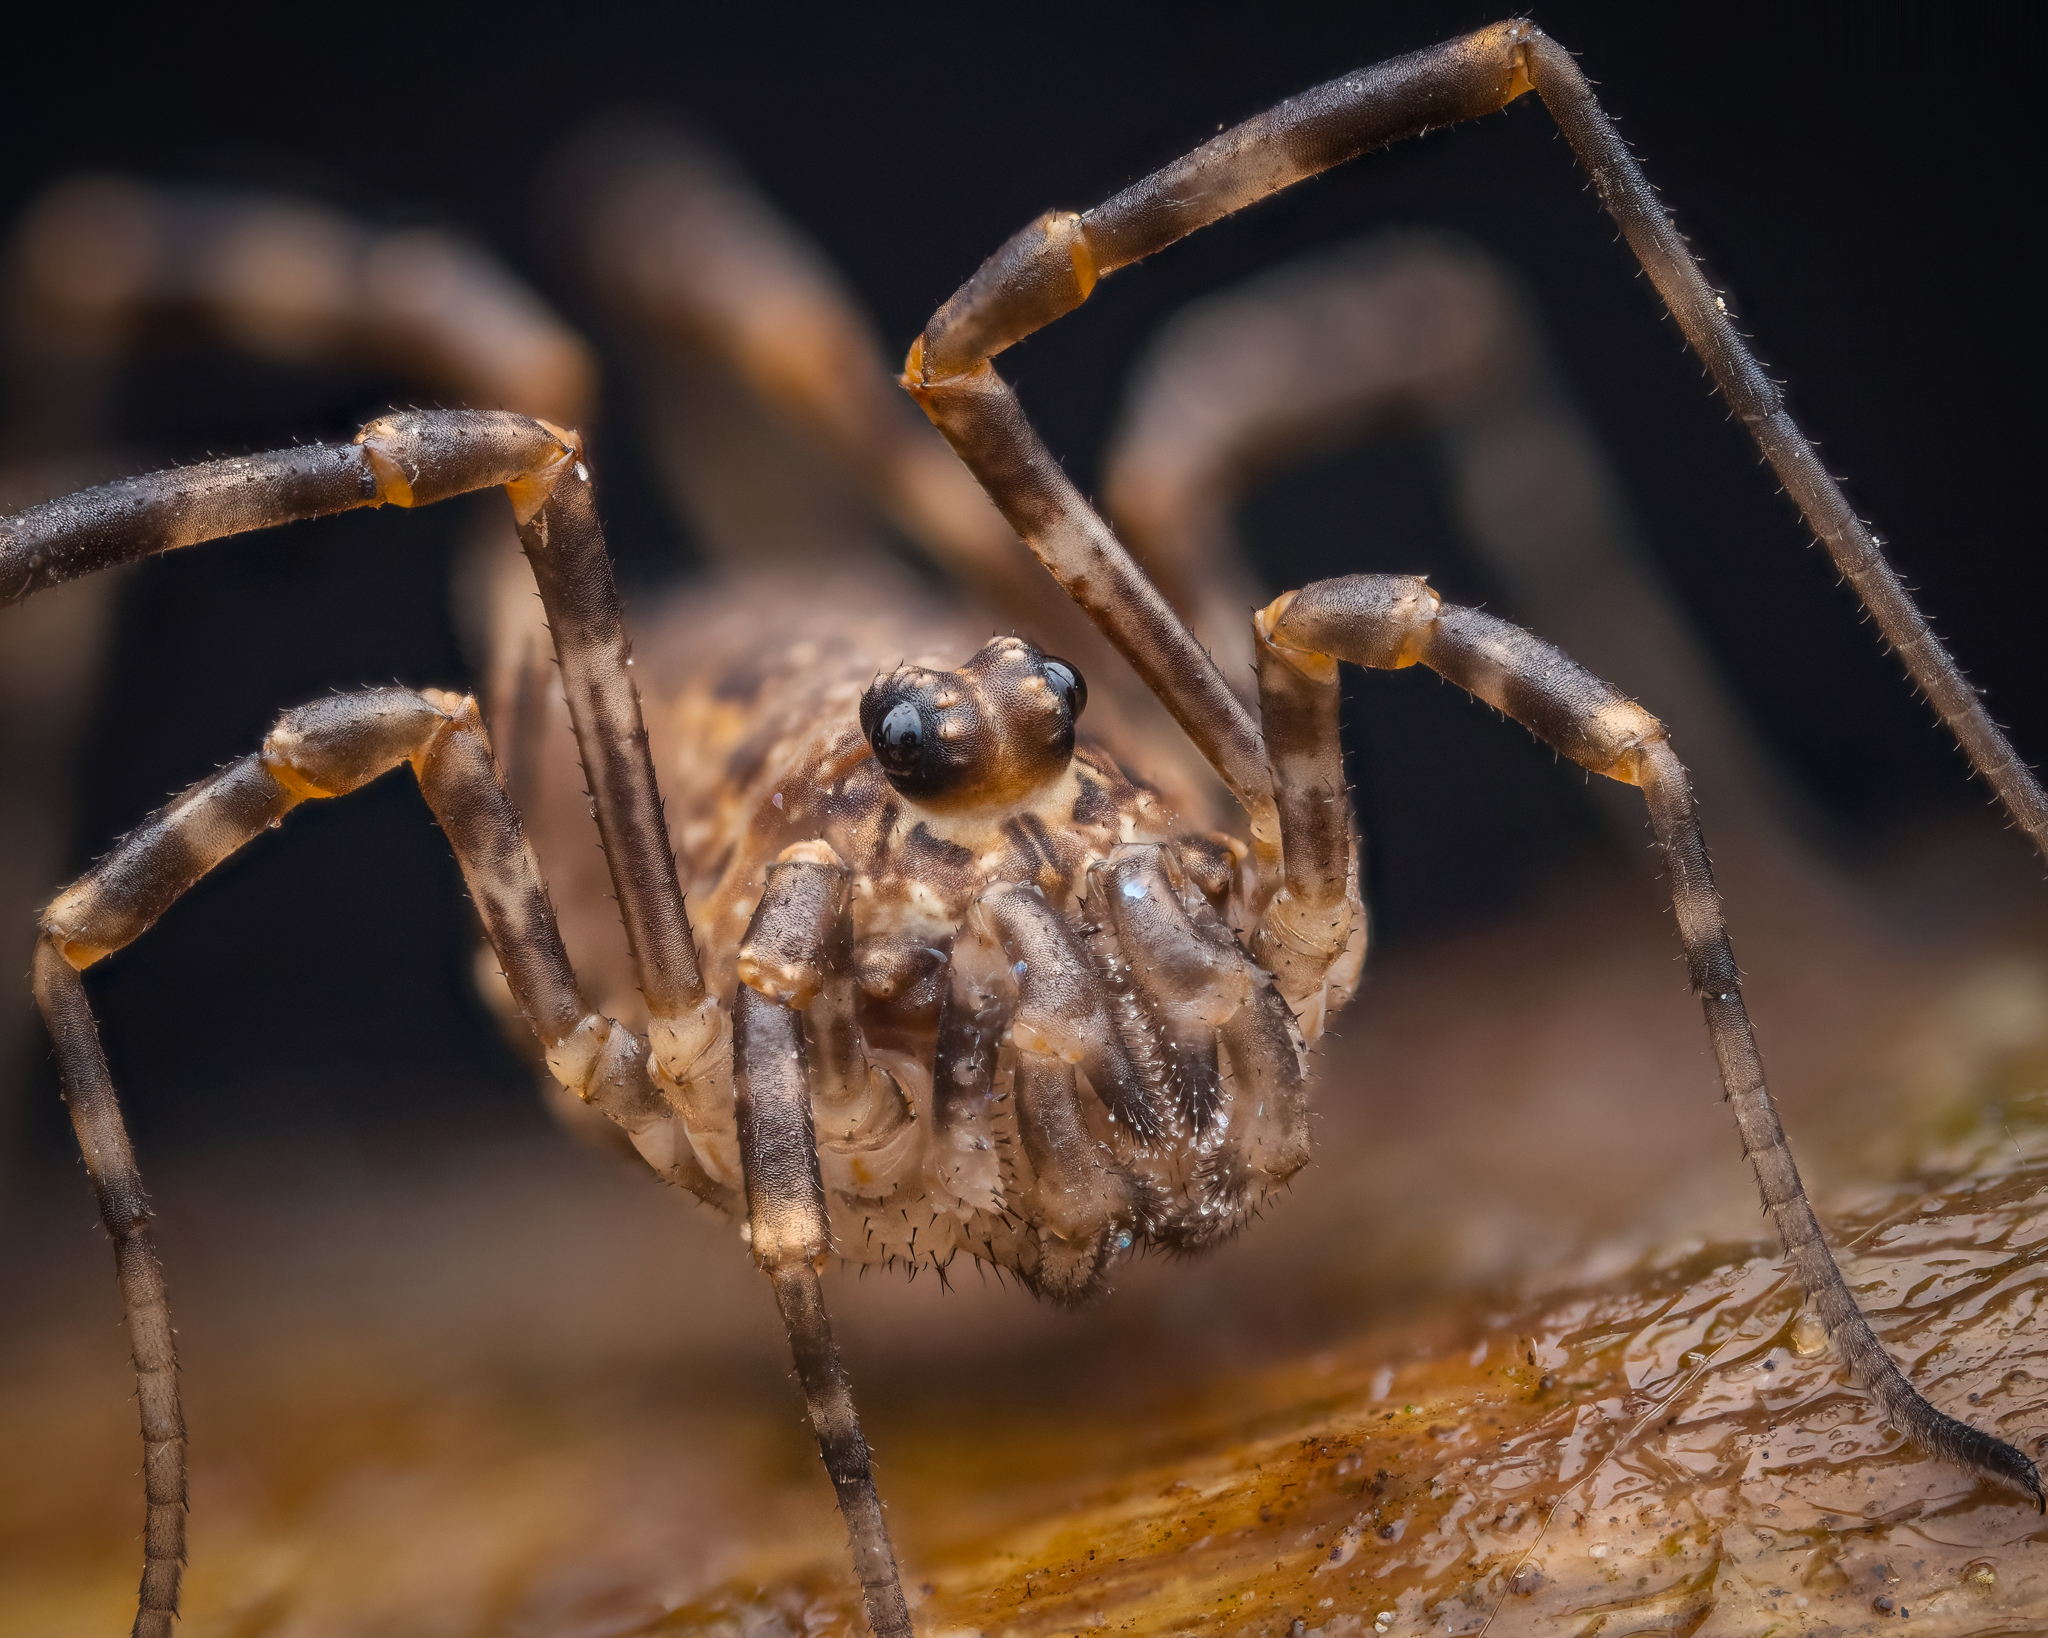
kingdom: Animalia
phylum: Arthropoda
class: Arachnida
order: Opiliones
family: Phalangiidae
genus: Rilaena
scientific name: Rilaena triangularis
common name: Spring harvestman
